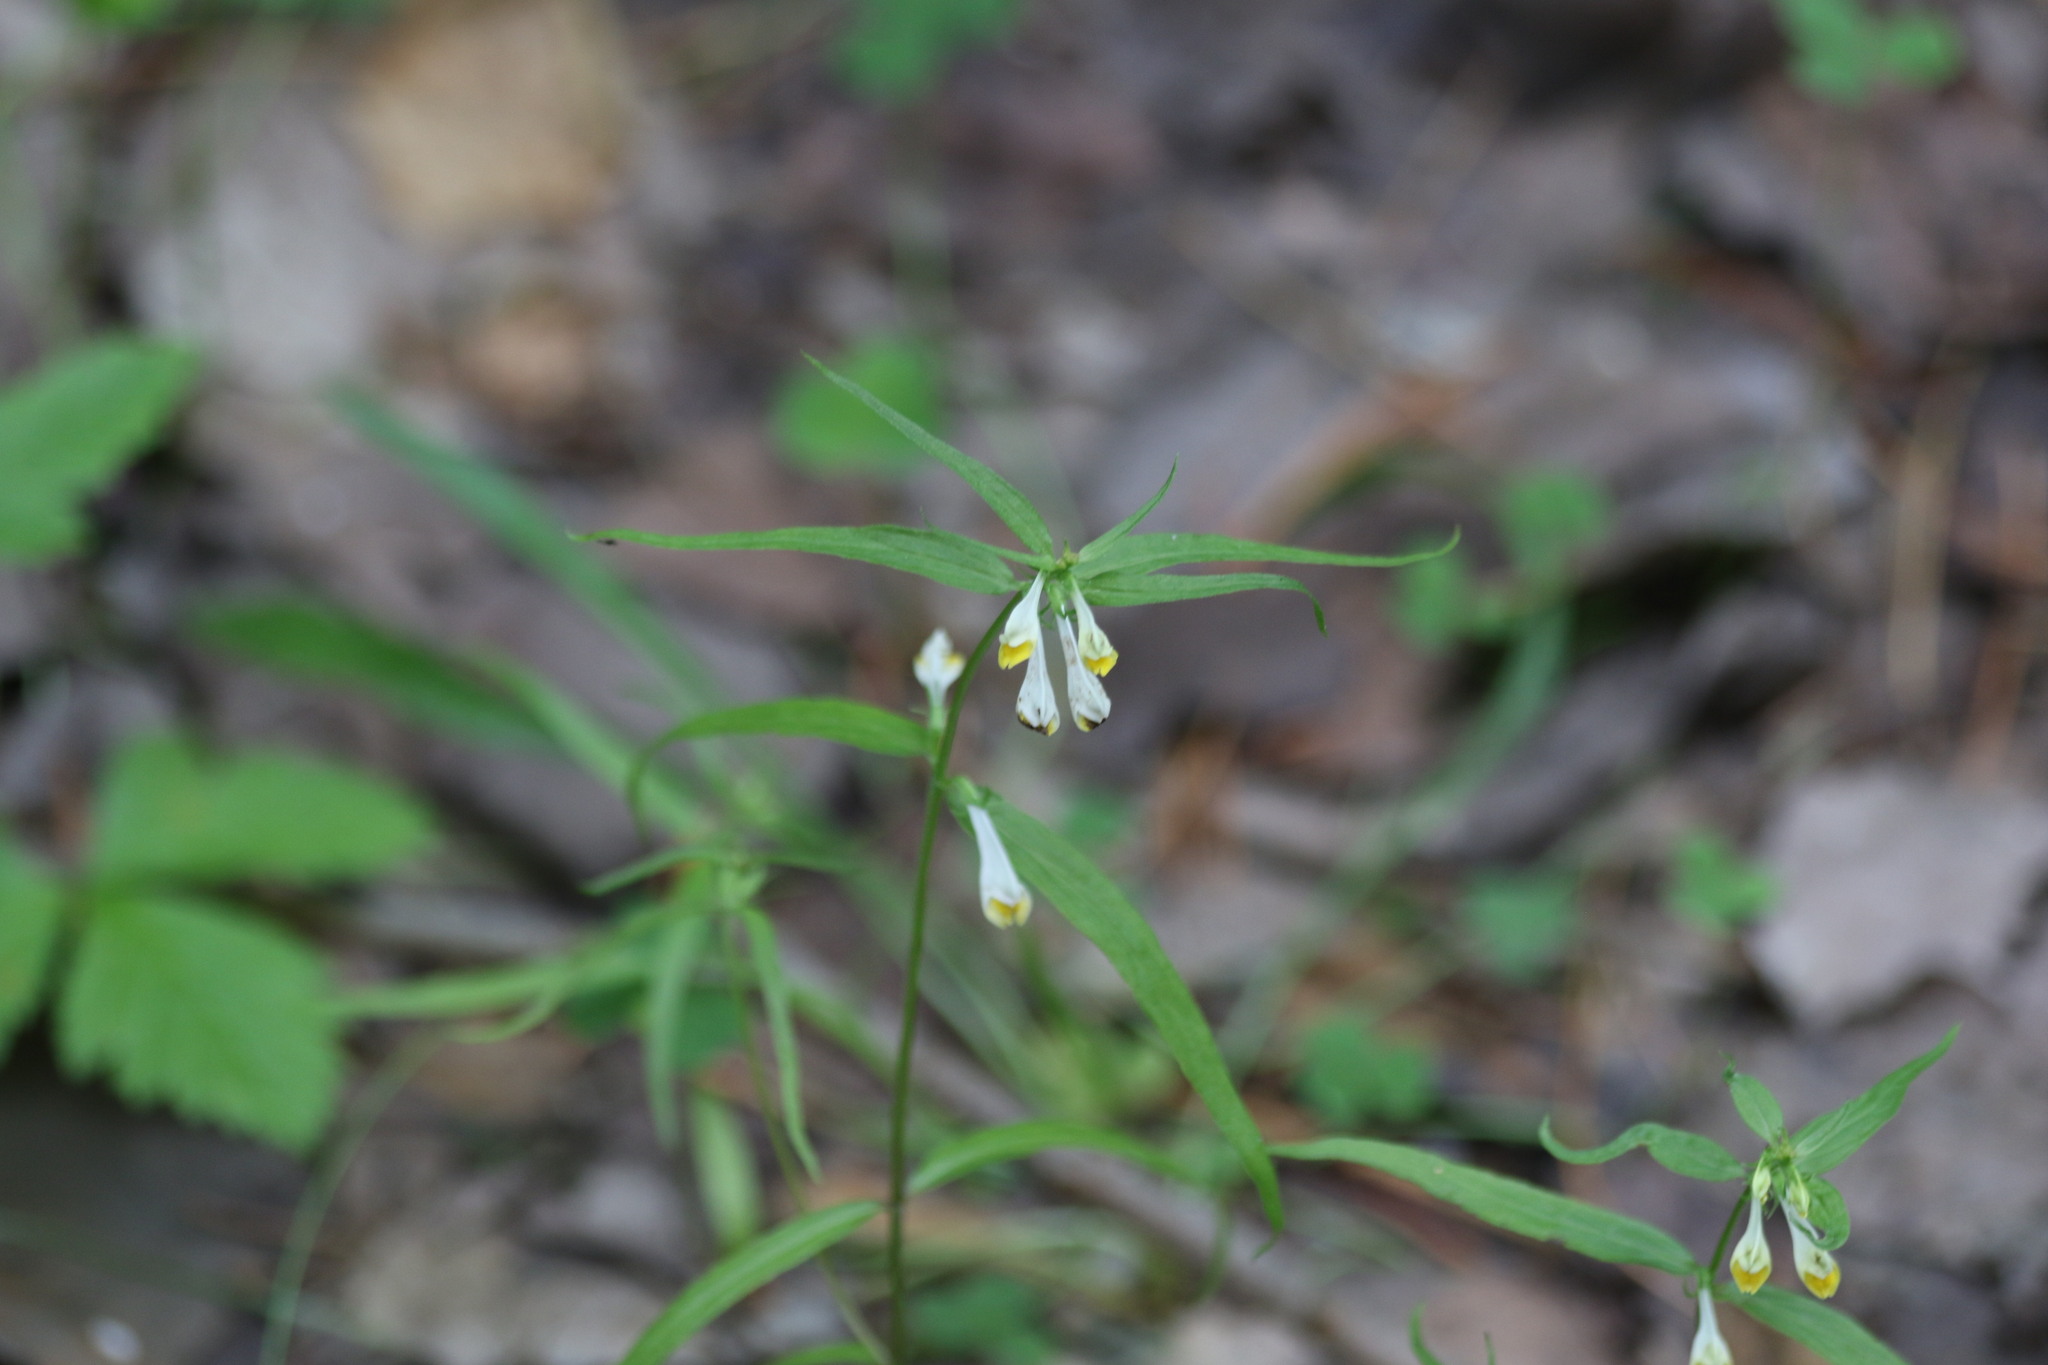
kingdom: Plantae
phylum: Tracheophyta
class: Magnoliopsida
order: Lamiales
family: Orobanchaceae
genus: Melampyrum
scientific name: Melampyrum pratense
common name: Common cow-wheat
